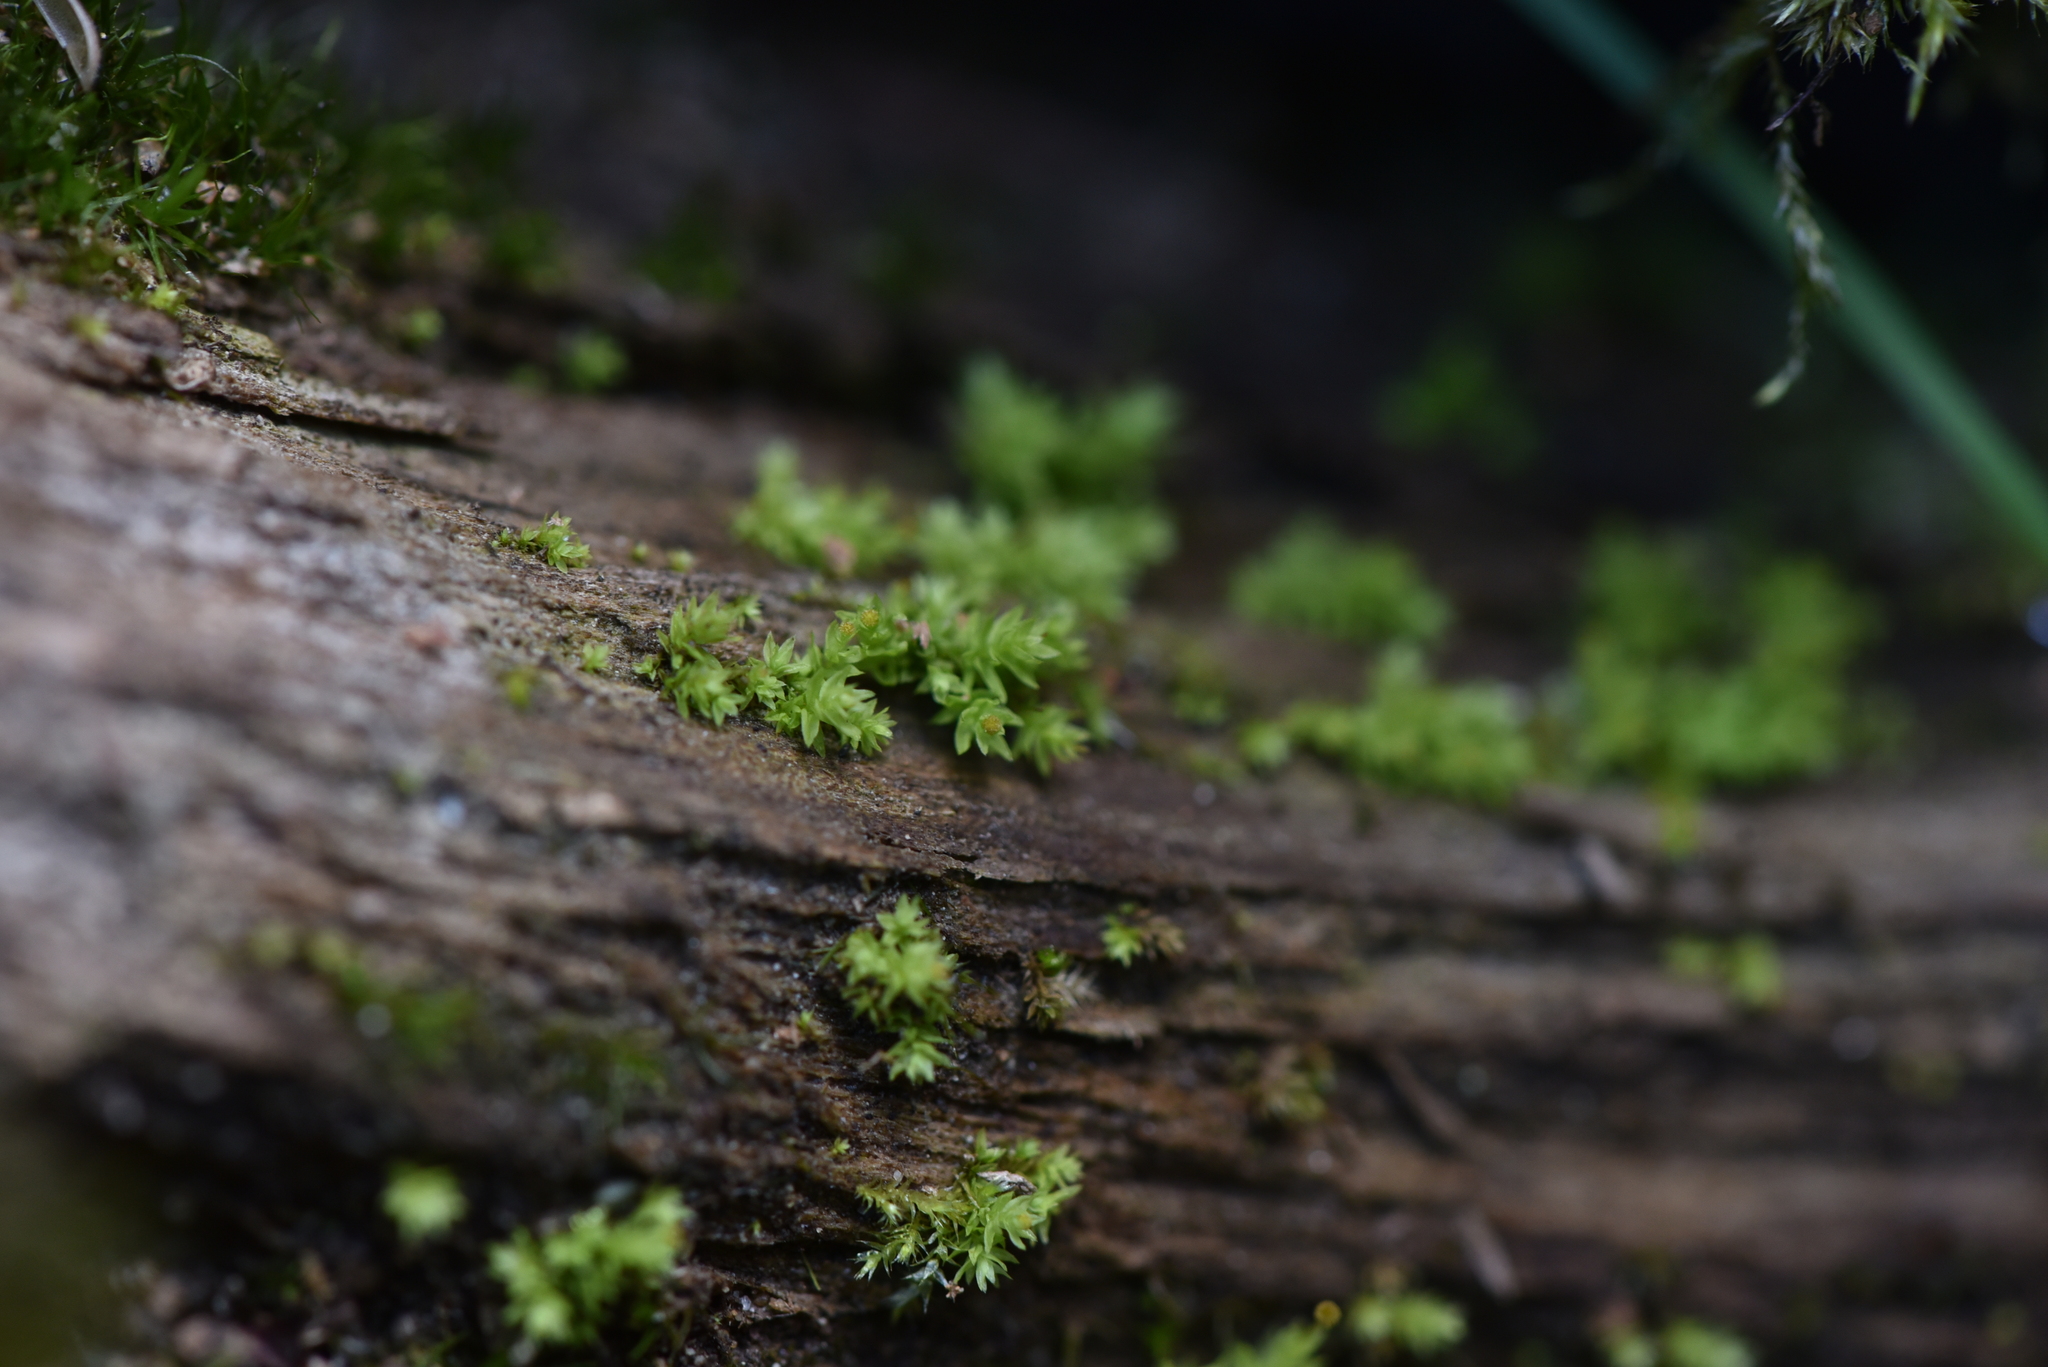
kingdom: Plantae
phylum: Bryophyta
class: Bryopsida
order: Aulacomniales
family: Aulacomniaceae
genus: Aulacomnium
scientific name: Aulacomnium androgynum
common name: Little groove moss
